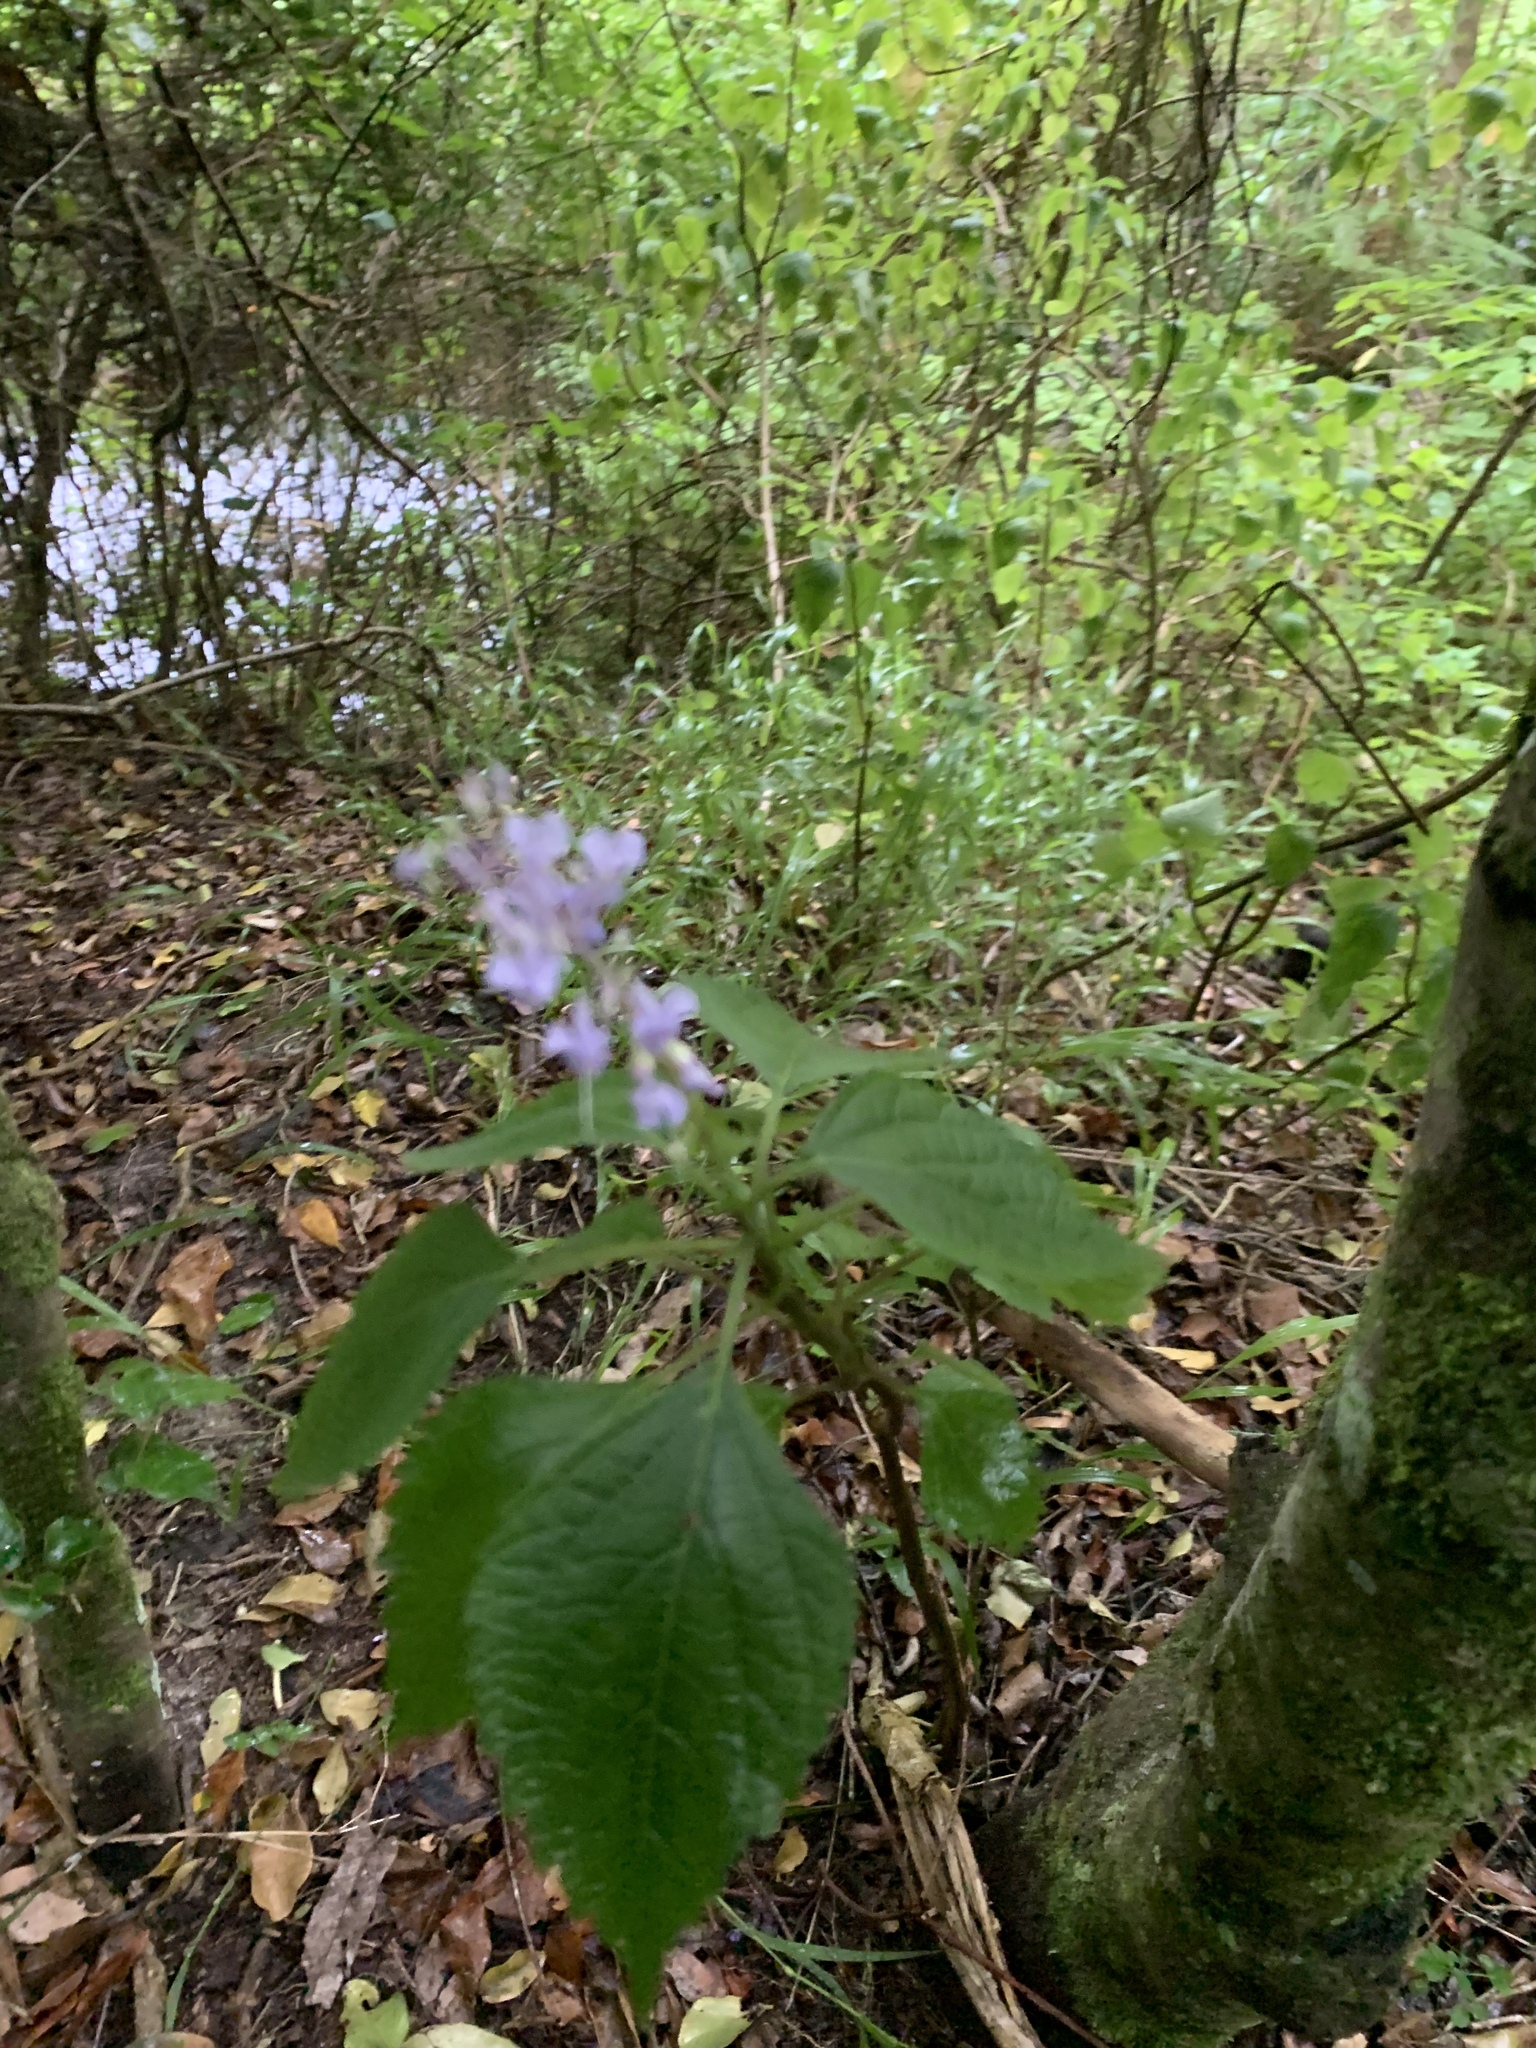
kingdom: Plantae
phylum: Tracheophyta
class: Magnoliopsida
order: Lamiales
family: Lamiaceae
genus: Plectranthus
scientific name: Plectranthus fruticosus
